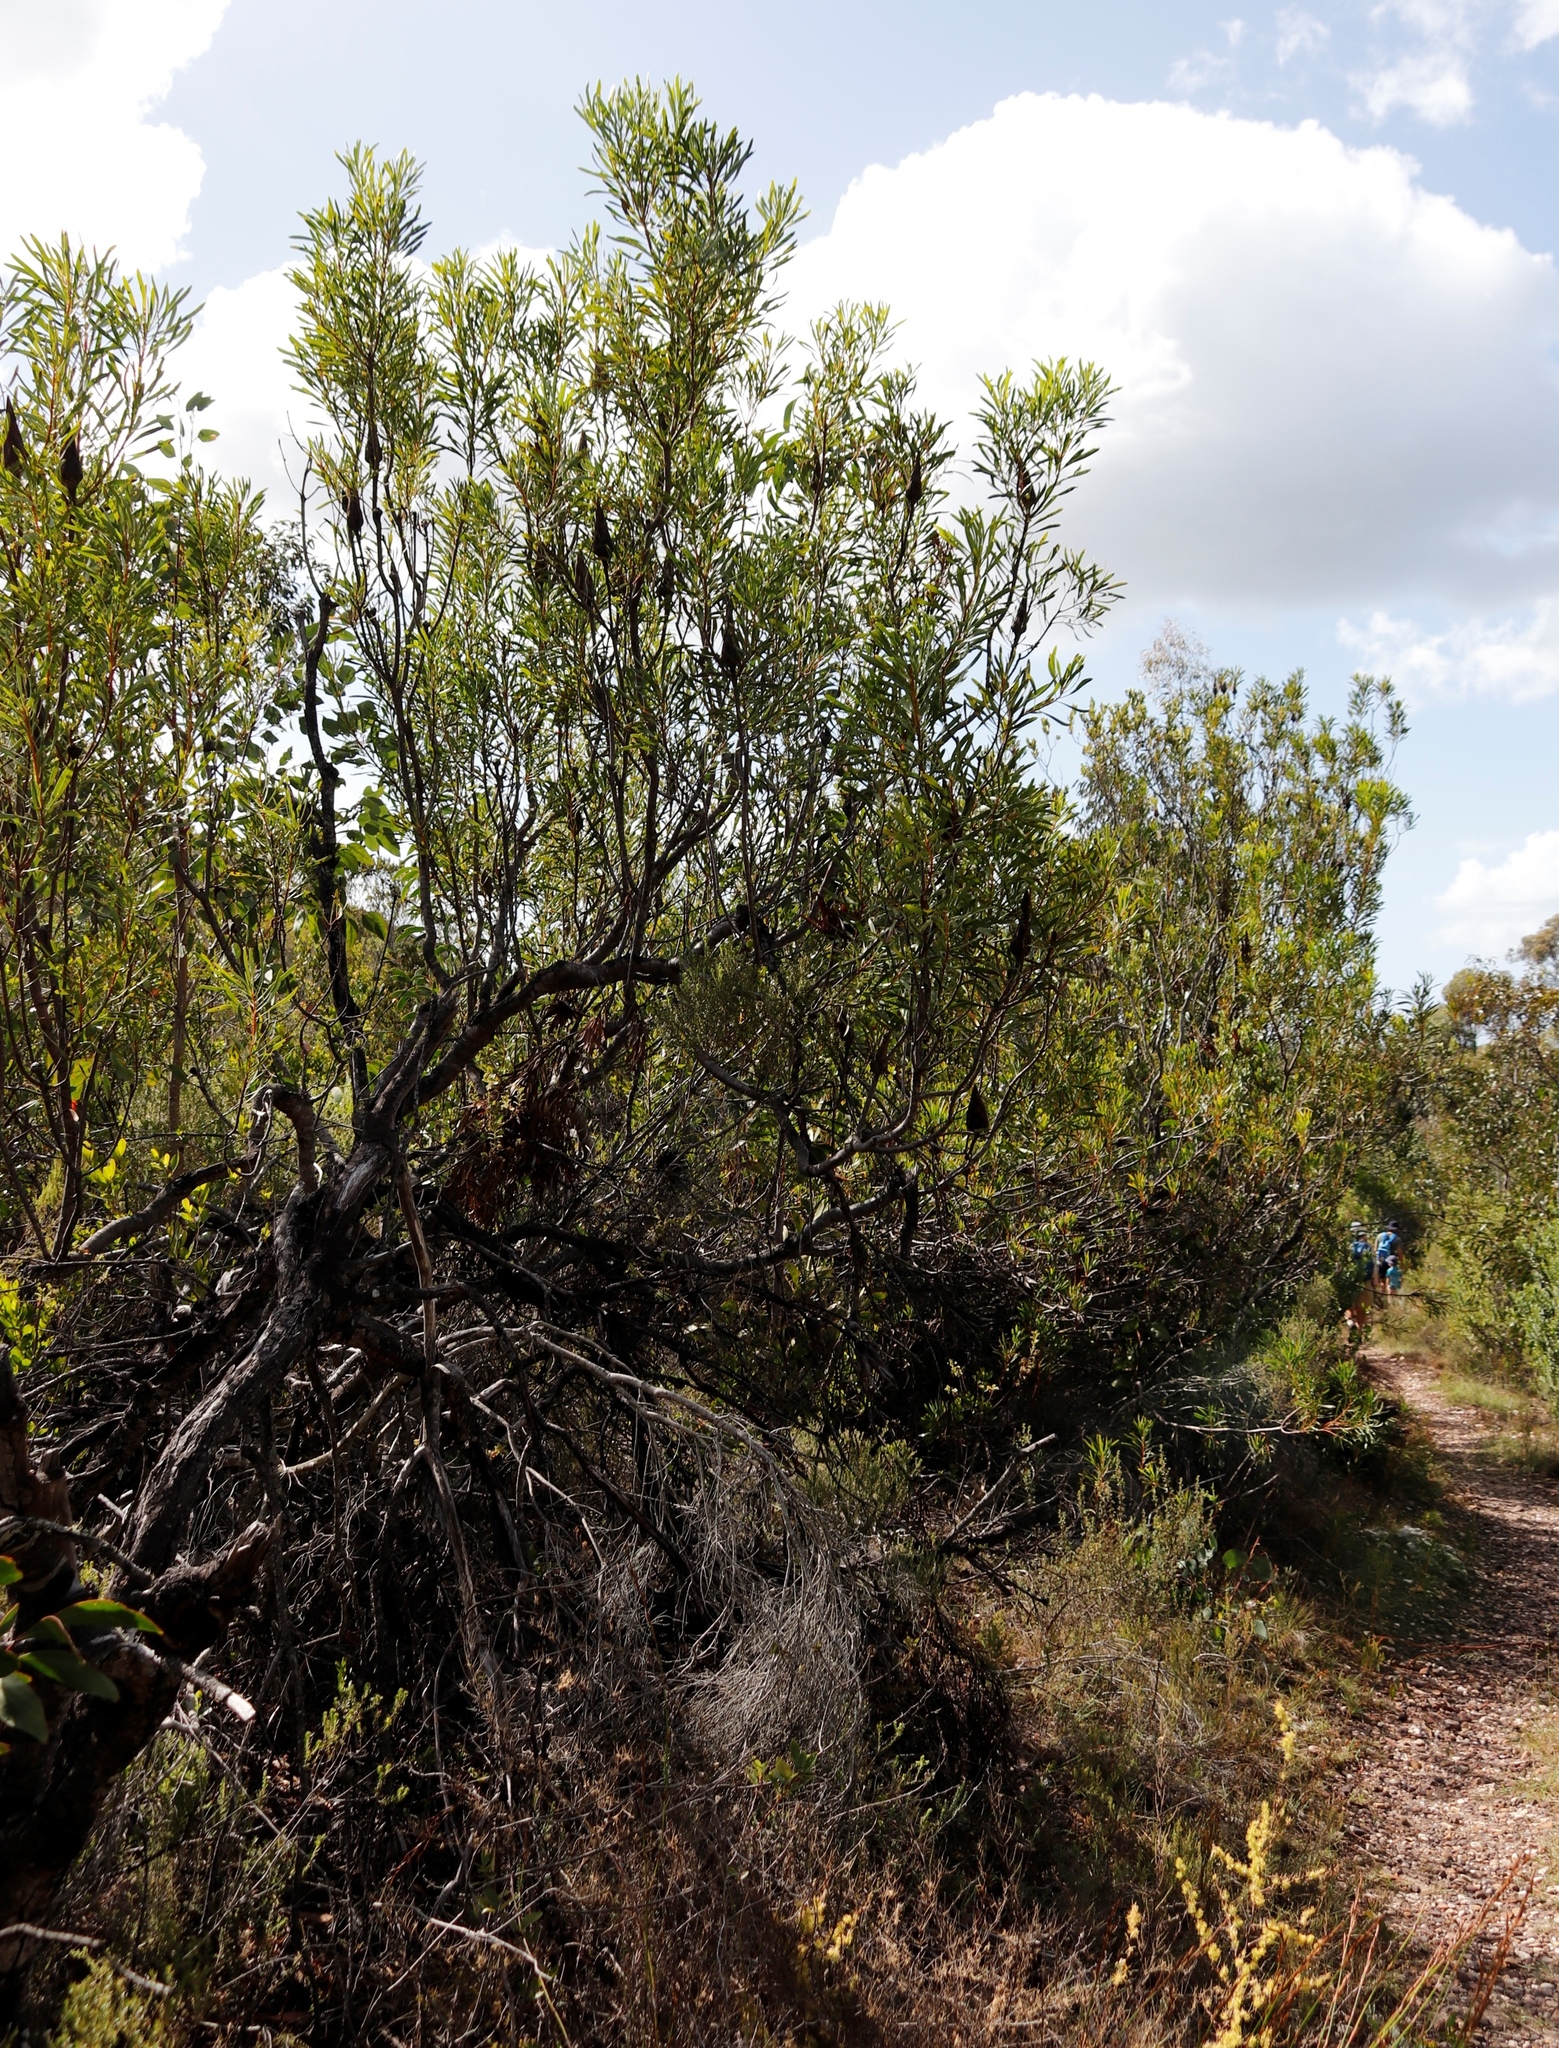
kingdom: Plantae
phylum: Tracheophyta
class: Magnoliopsida
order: Proteales
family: Proteaceae
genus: Protea
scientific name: Protea repens
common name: Sugarbush
